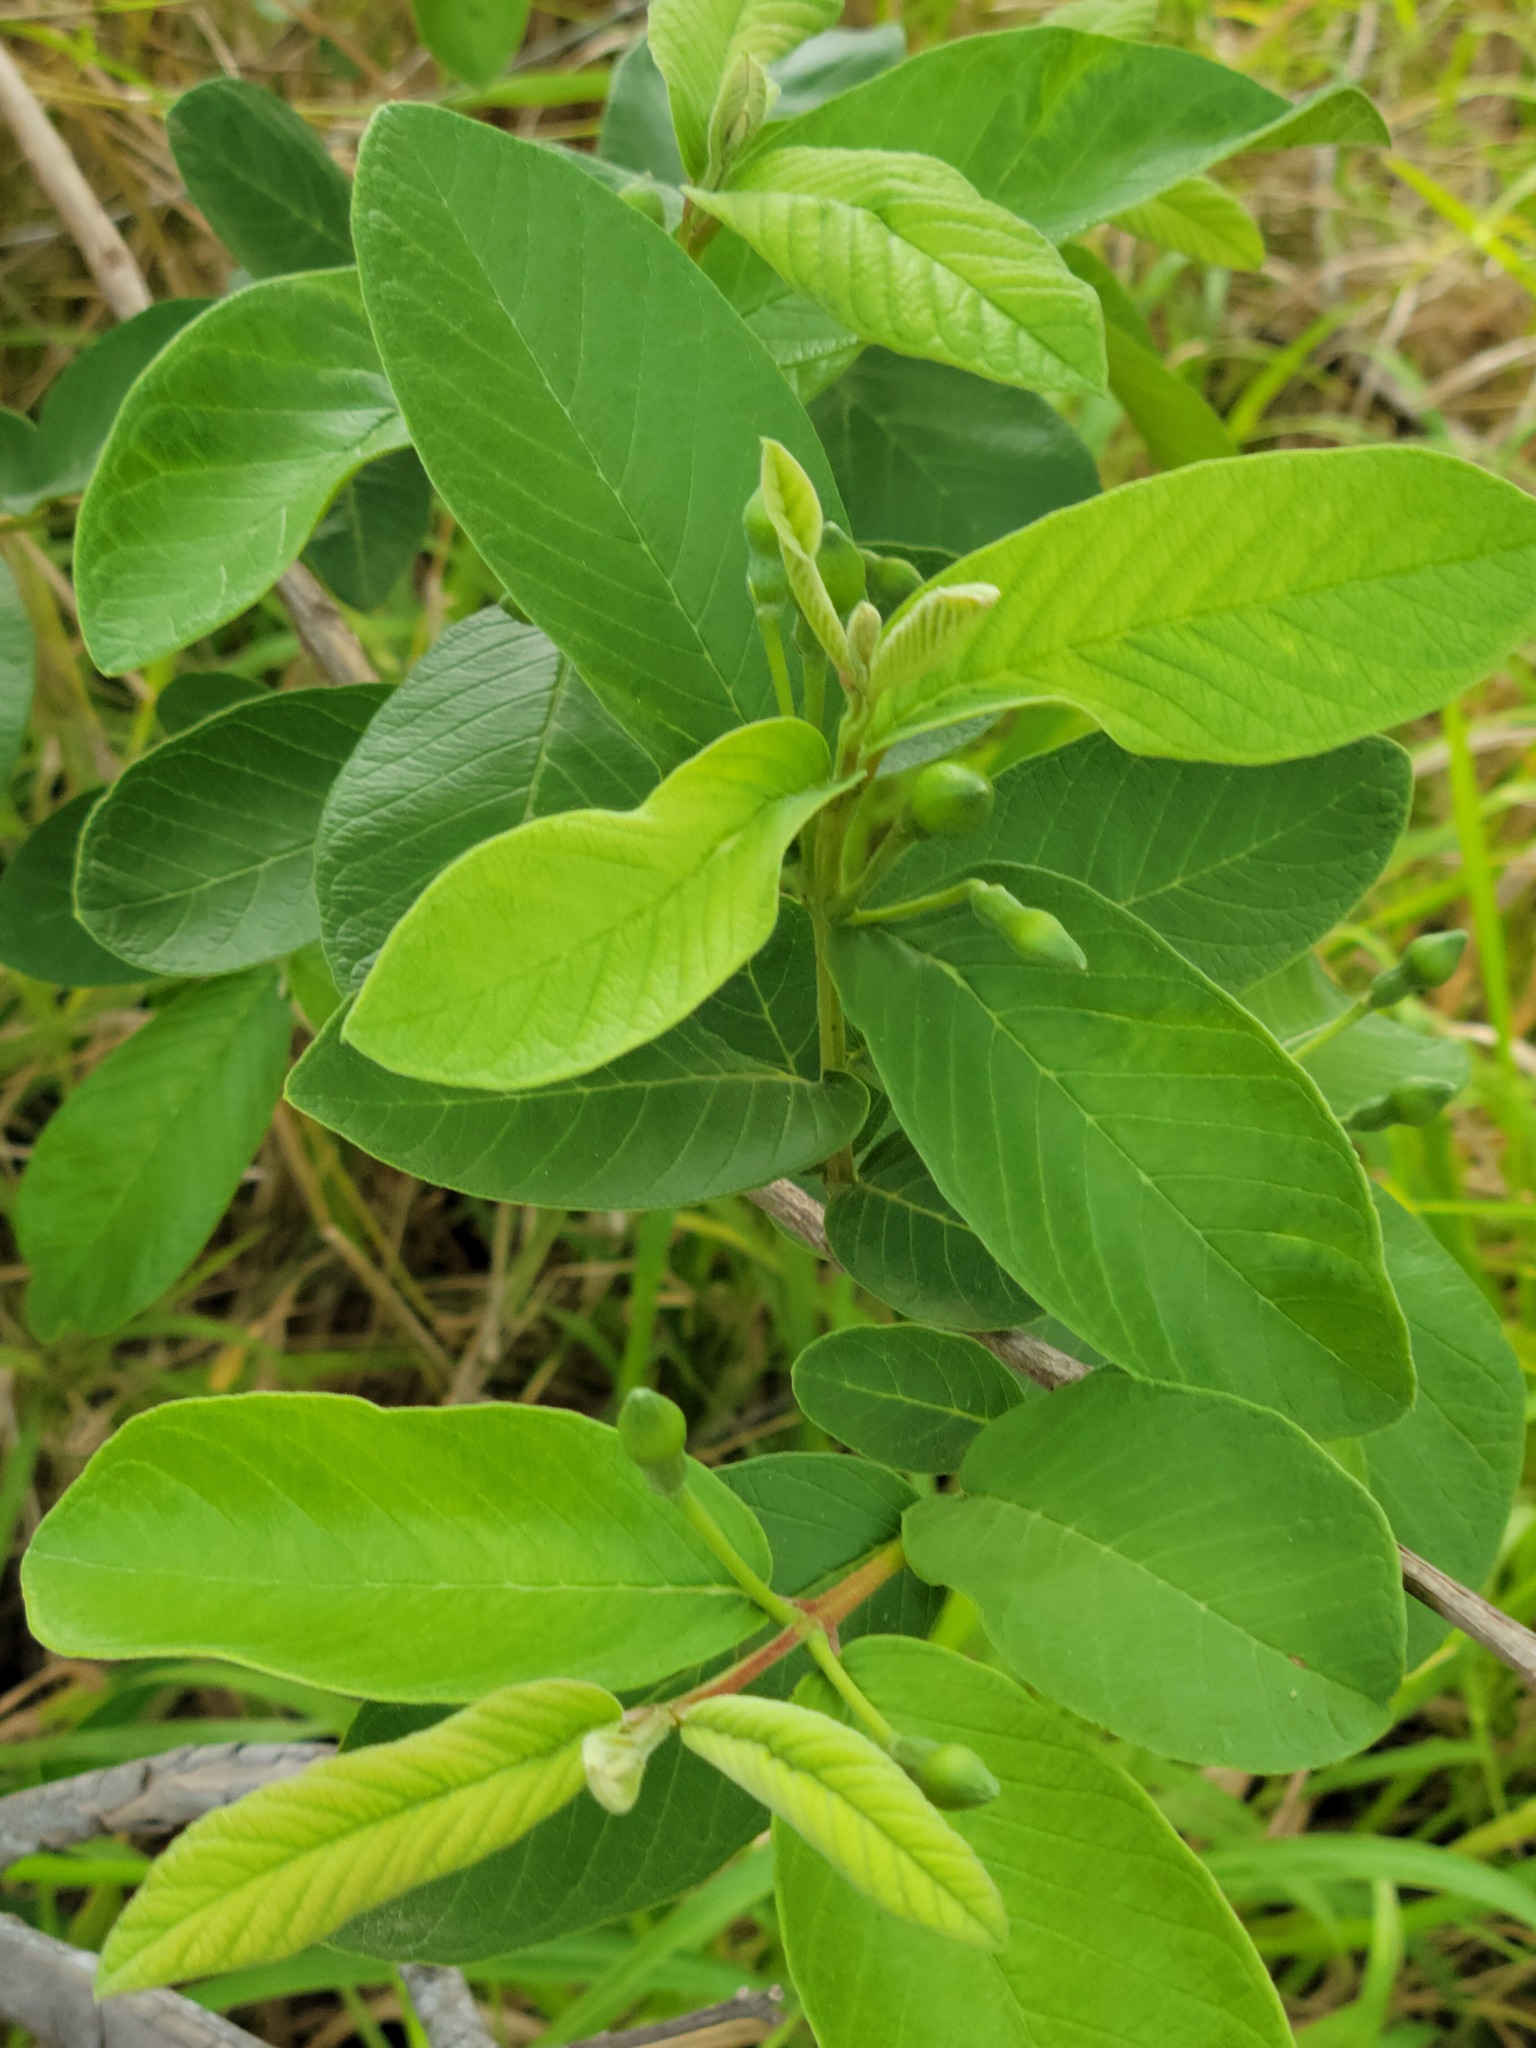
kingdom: Plantae
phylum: Tracheophyta
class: Magnoliopsida
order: Myrtales
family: Myrtaceae
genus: Psidium
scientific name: Psidium guajava
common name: Guava
